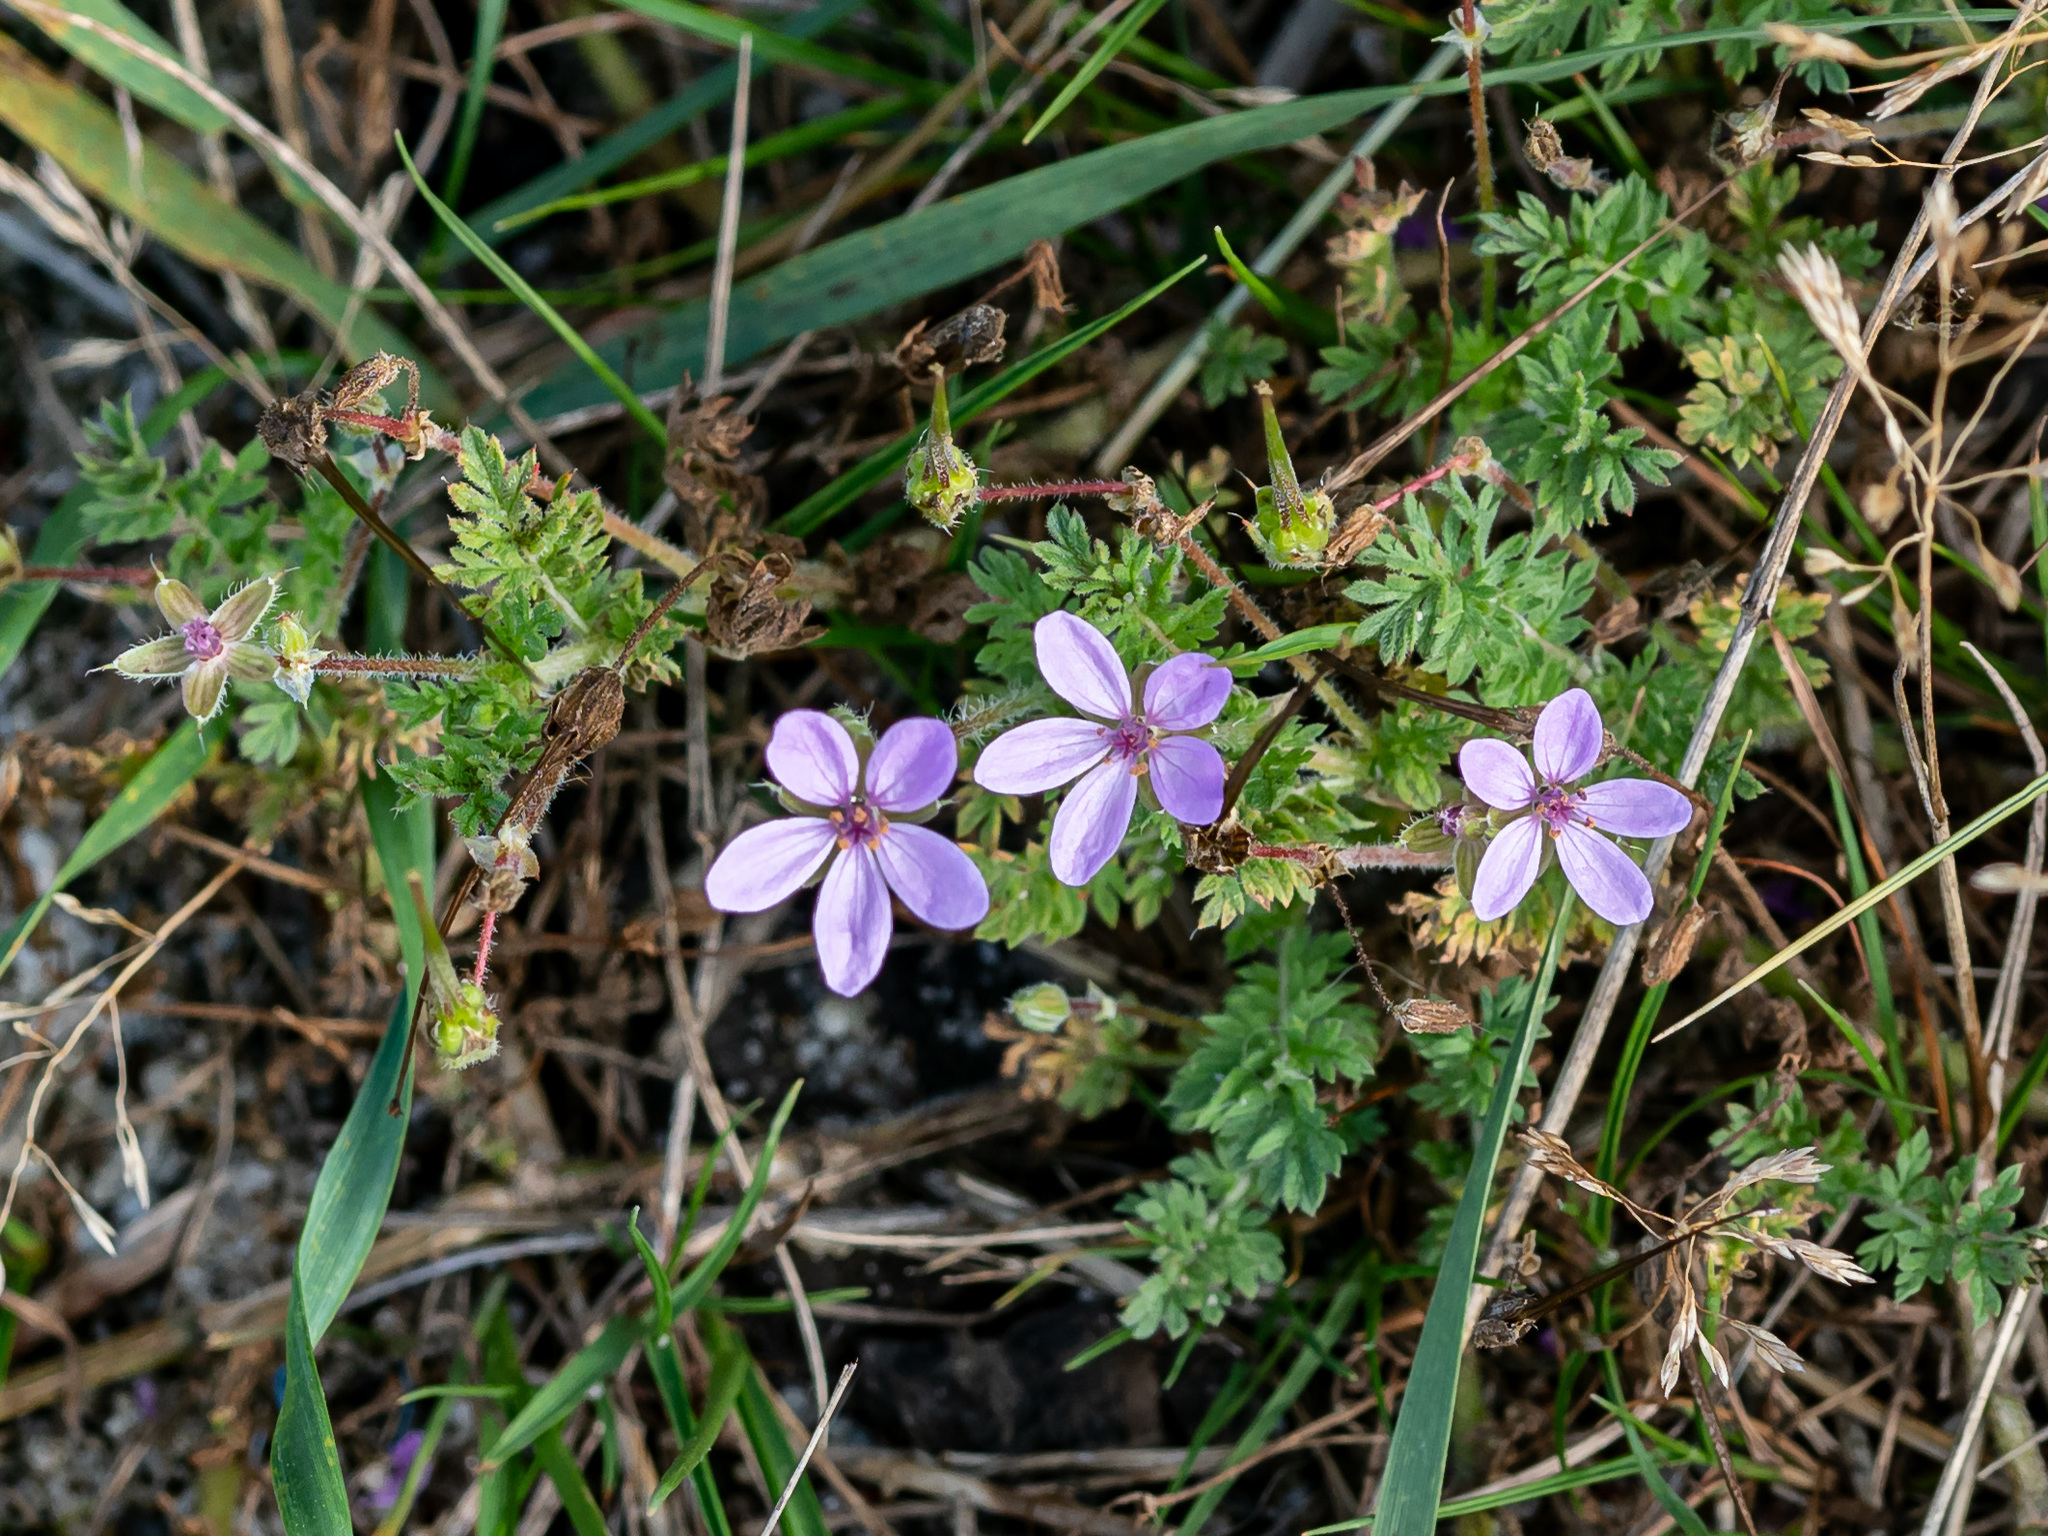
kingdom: Plantae
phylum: Tracheophyta
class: Magnoliopsida
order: Geraniales
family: Geraniaceae
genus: Erodium
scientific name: Erodium cicutarium
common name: Common stork's-bill
